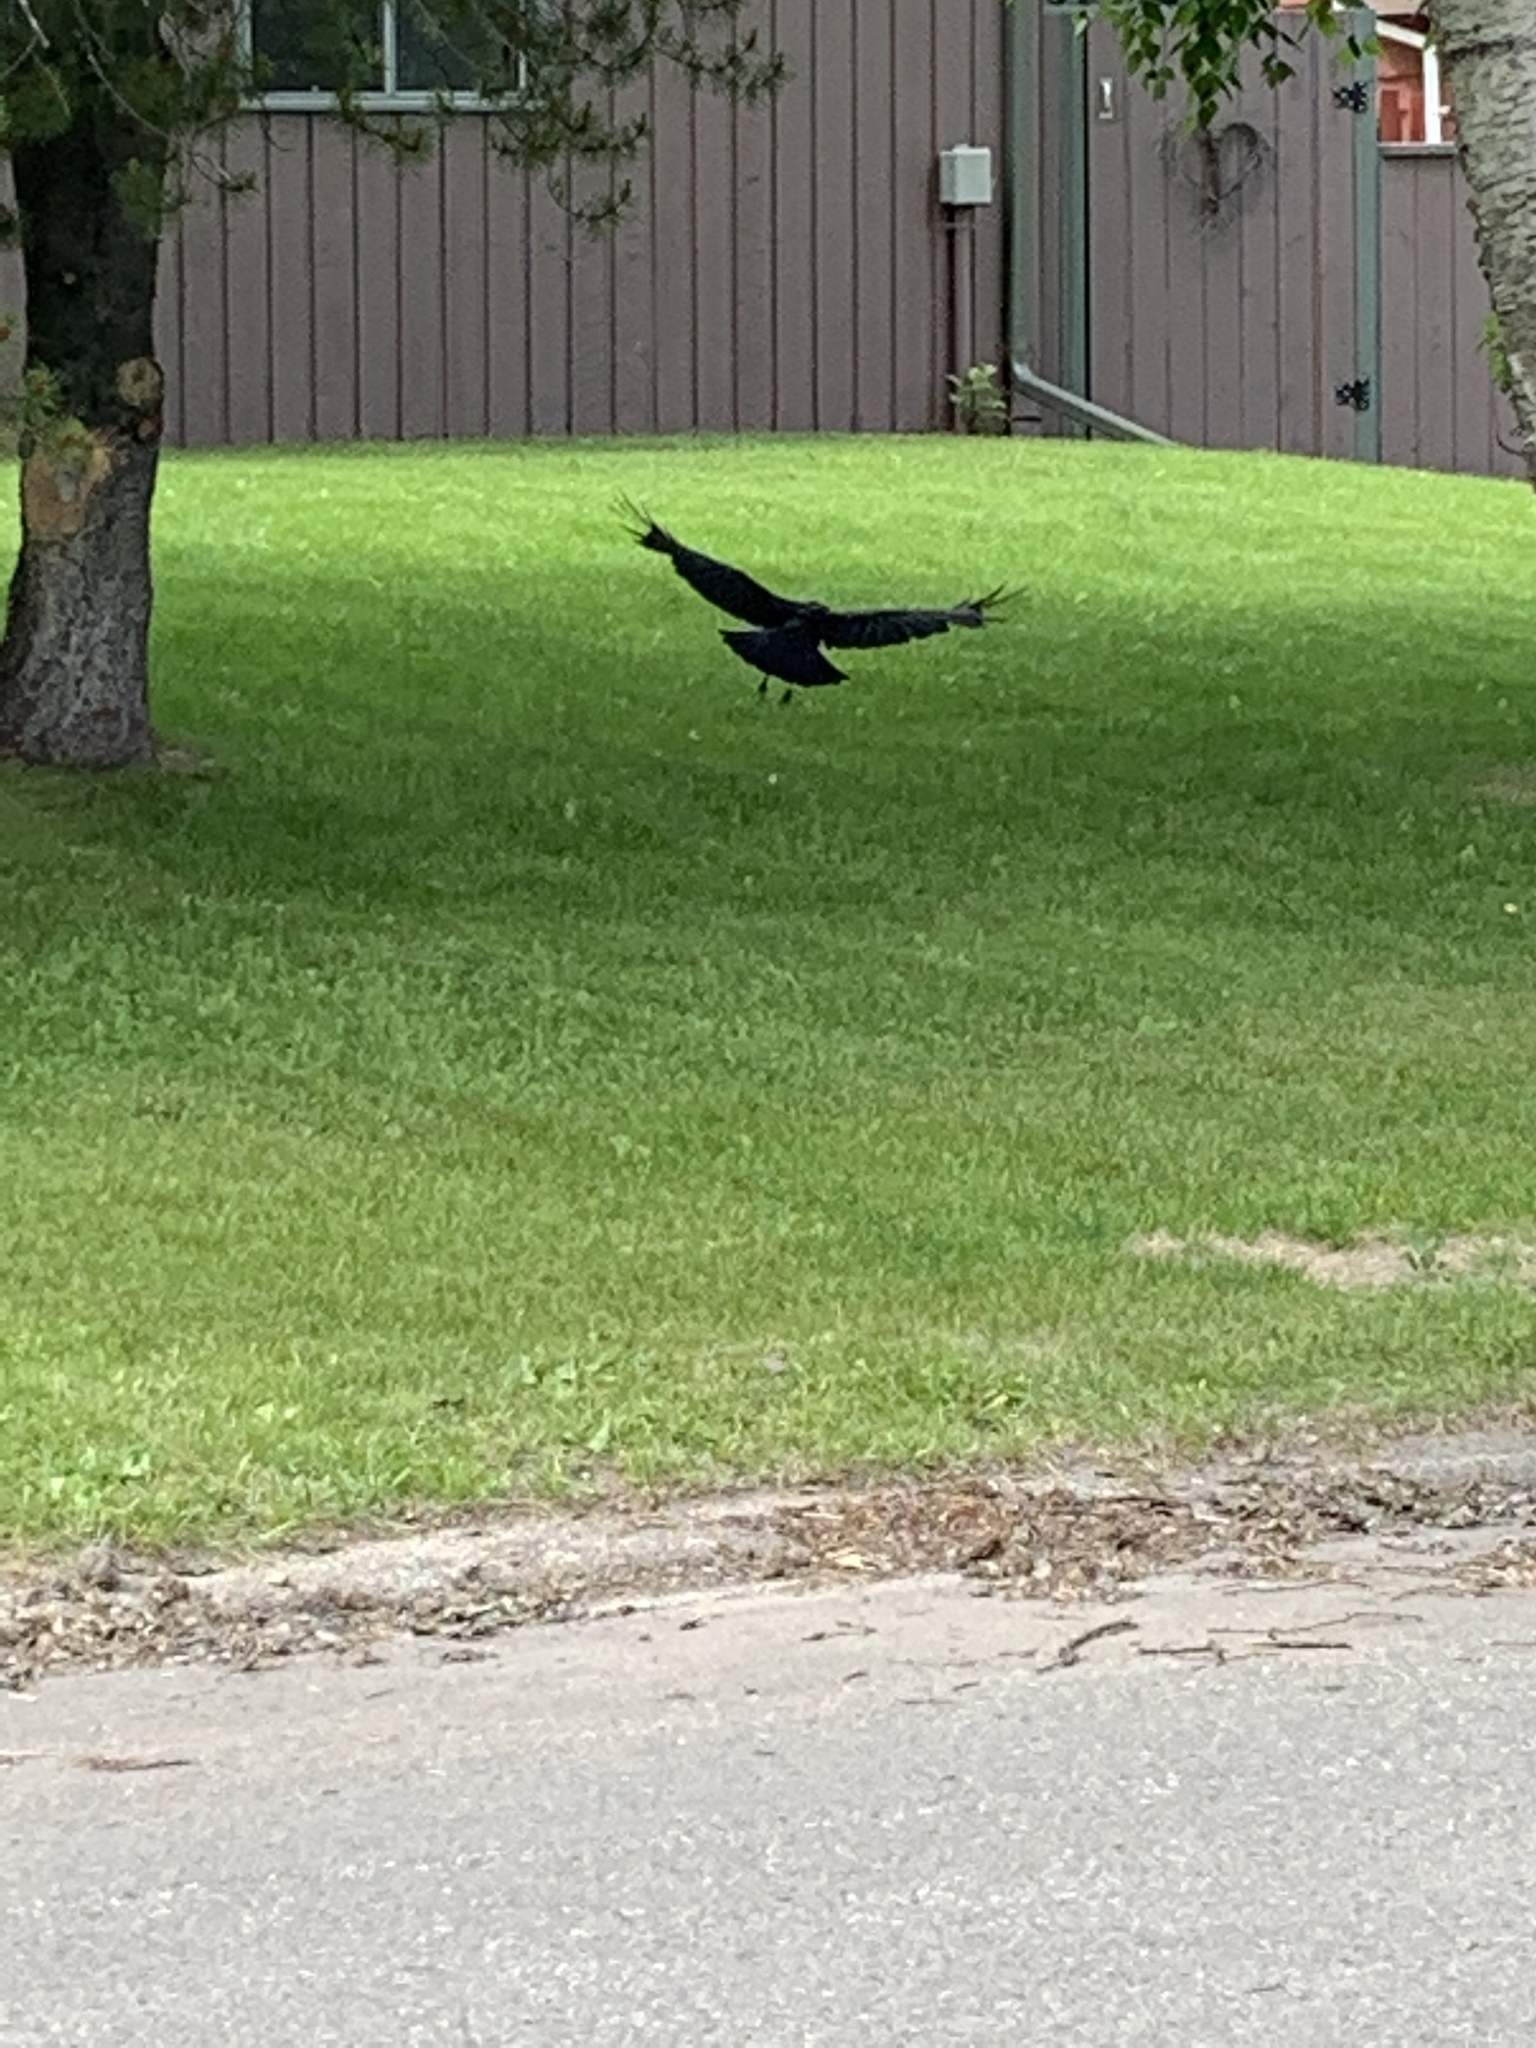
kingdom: Animalia
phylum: Chordata
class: Aves
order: Passeriformes
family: Corvidae
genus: Corvus
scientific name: Corvus brachyrhynchos
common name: American crow
